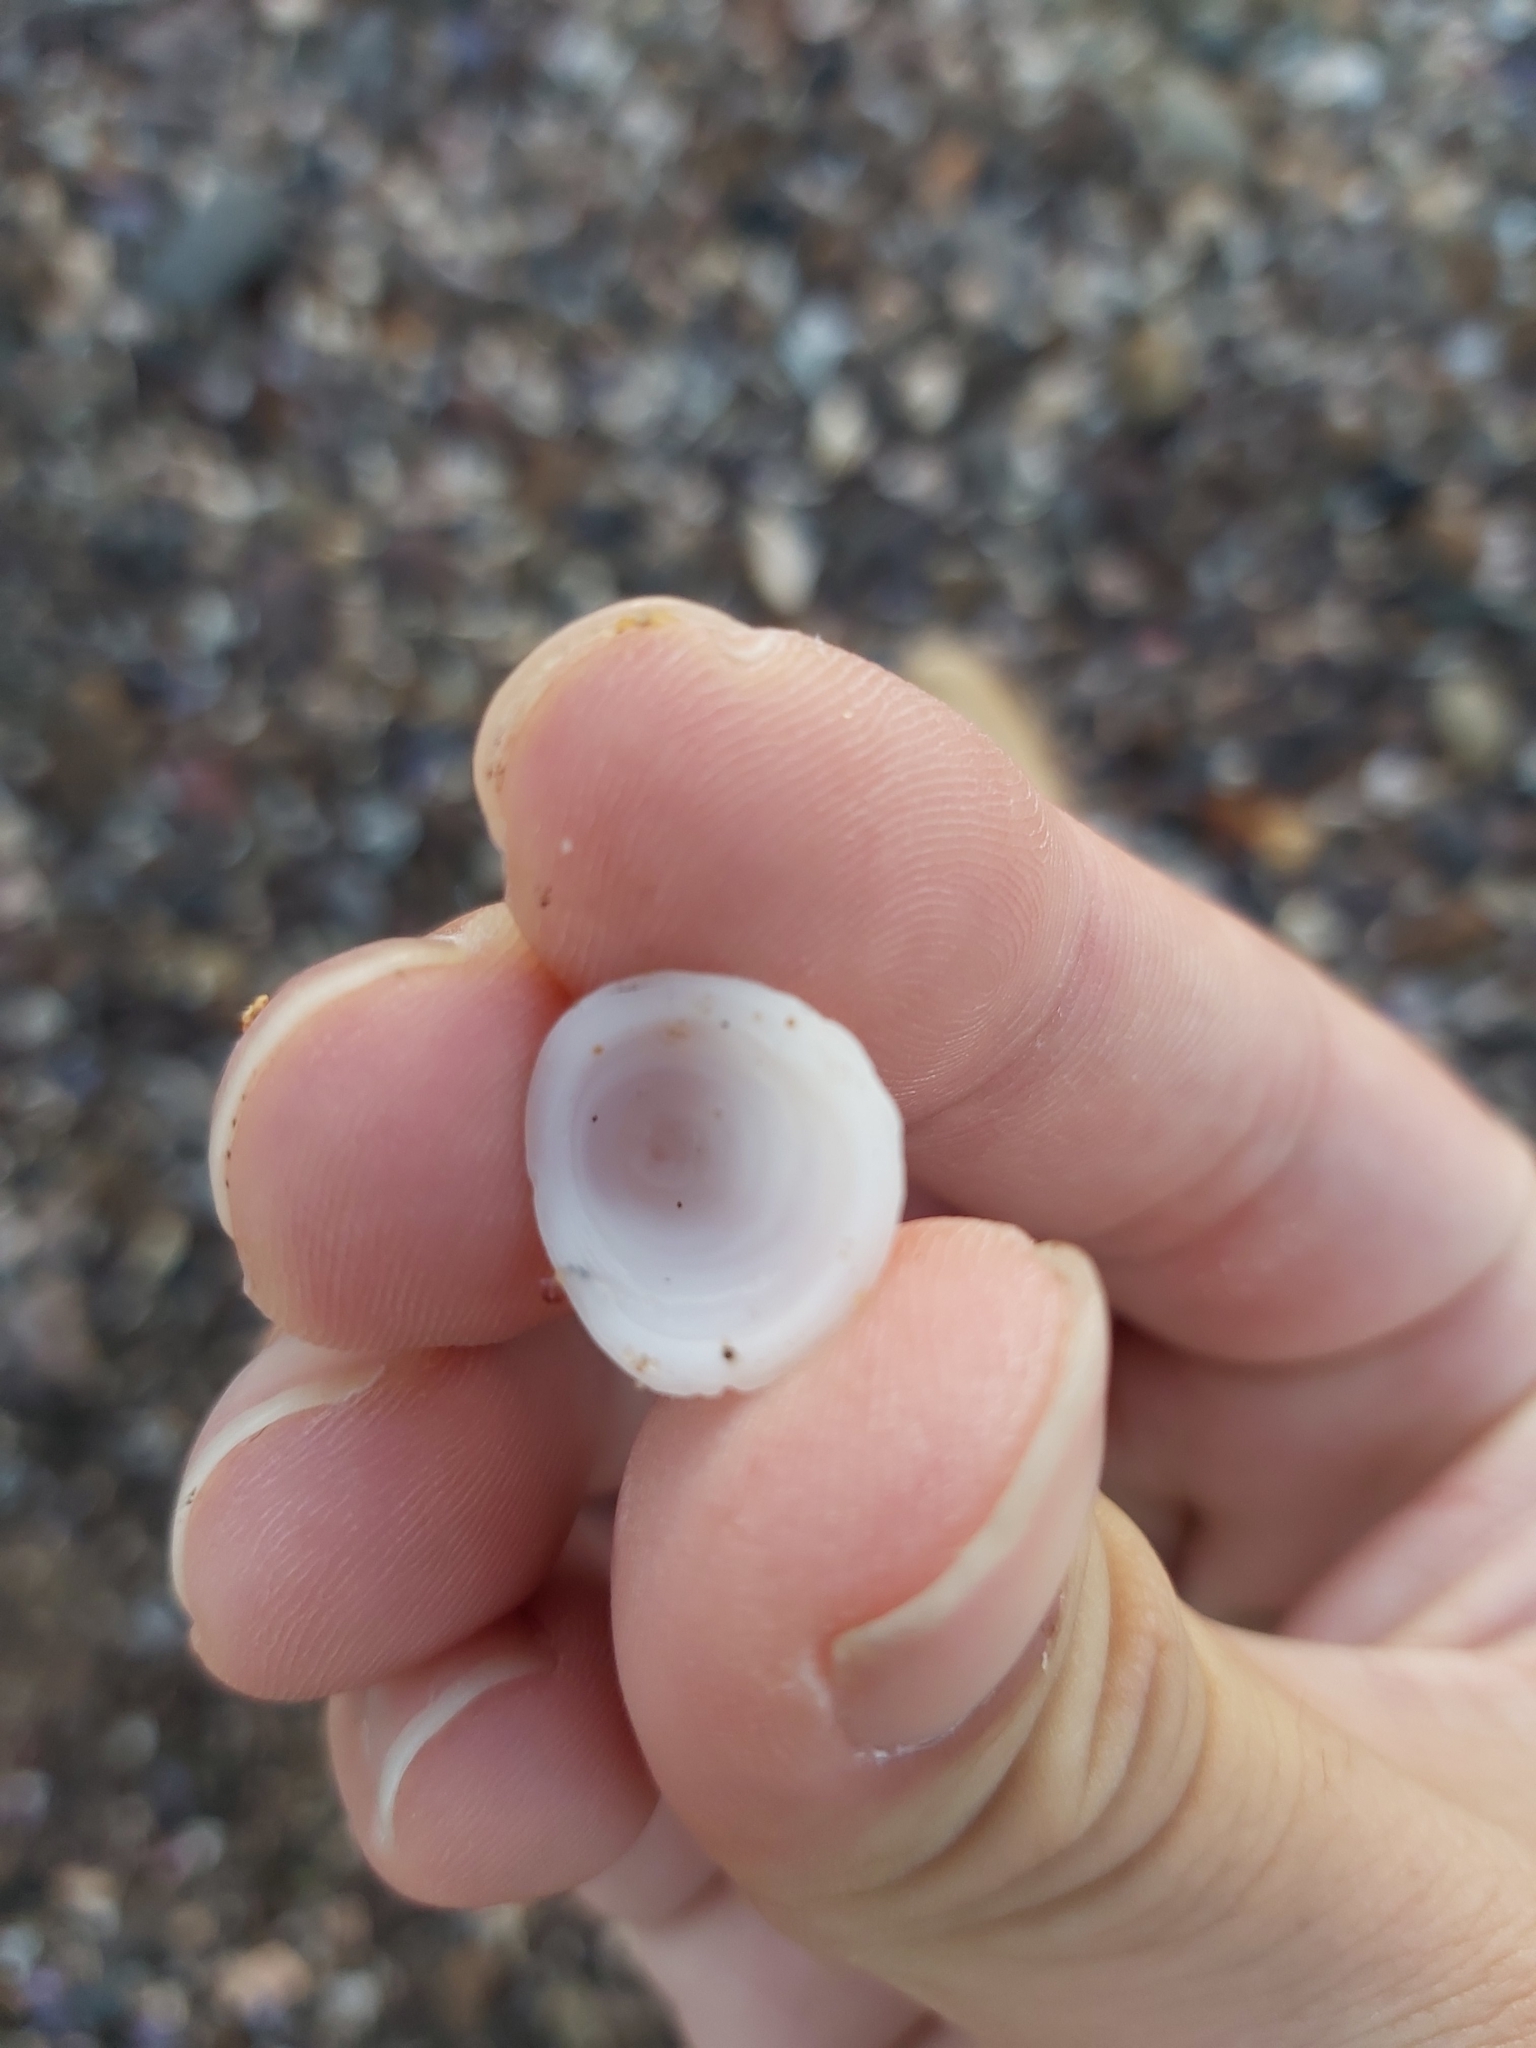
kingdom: Animalia
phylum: Mollusca
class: Gastropoda
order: Littorinimorpha
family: Hipponicidae
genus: Antisabia
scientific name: Antisabia foliacea
